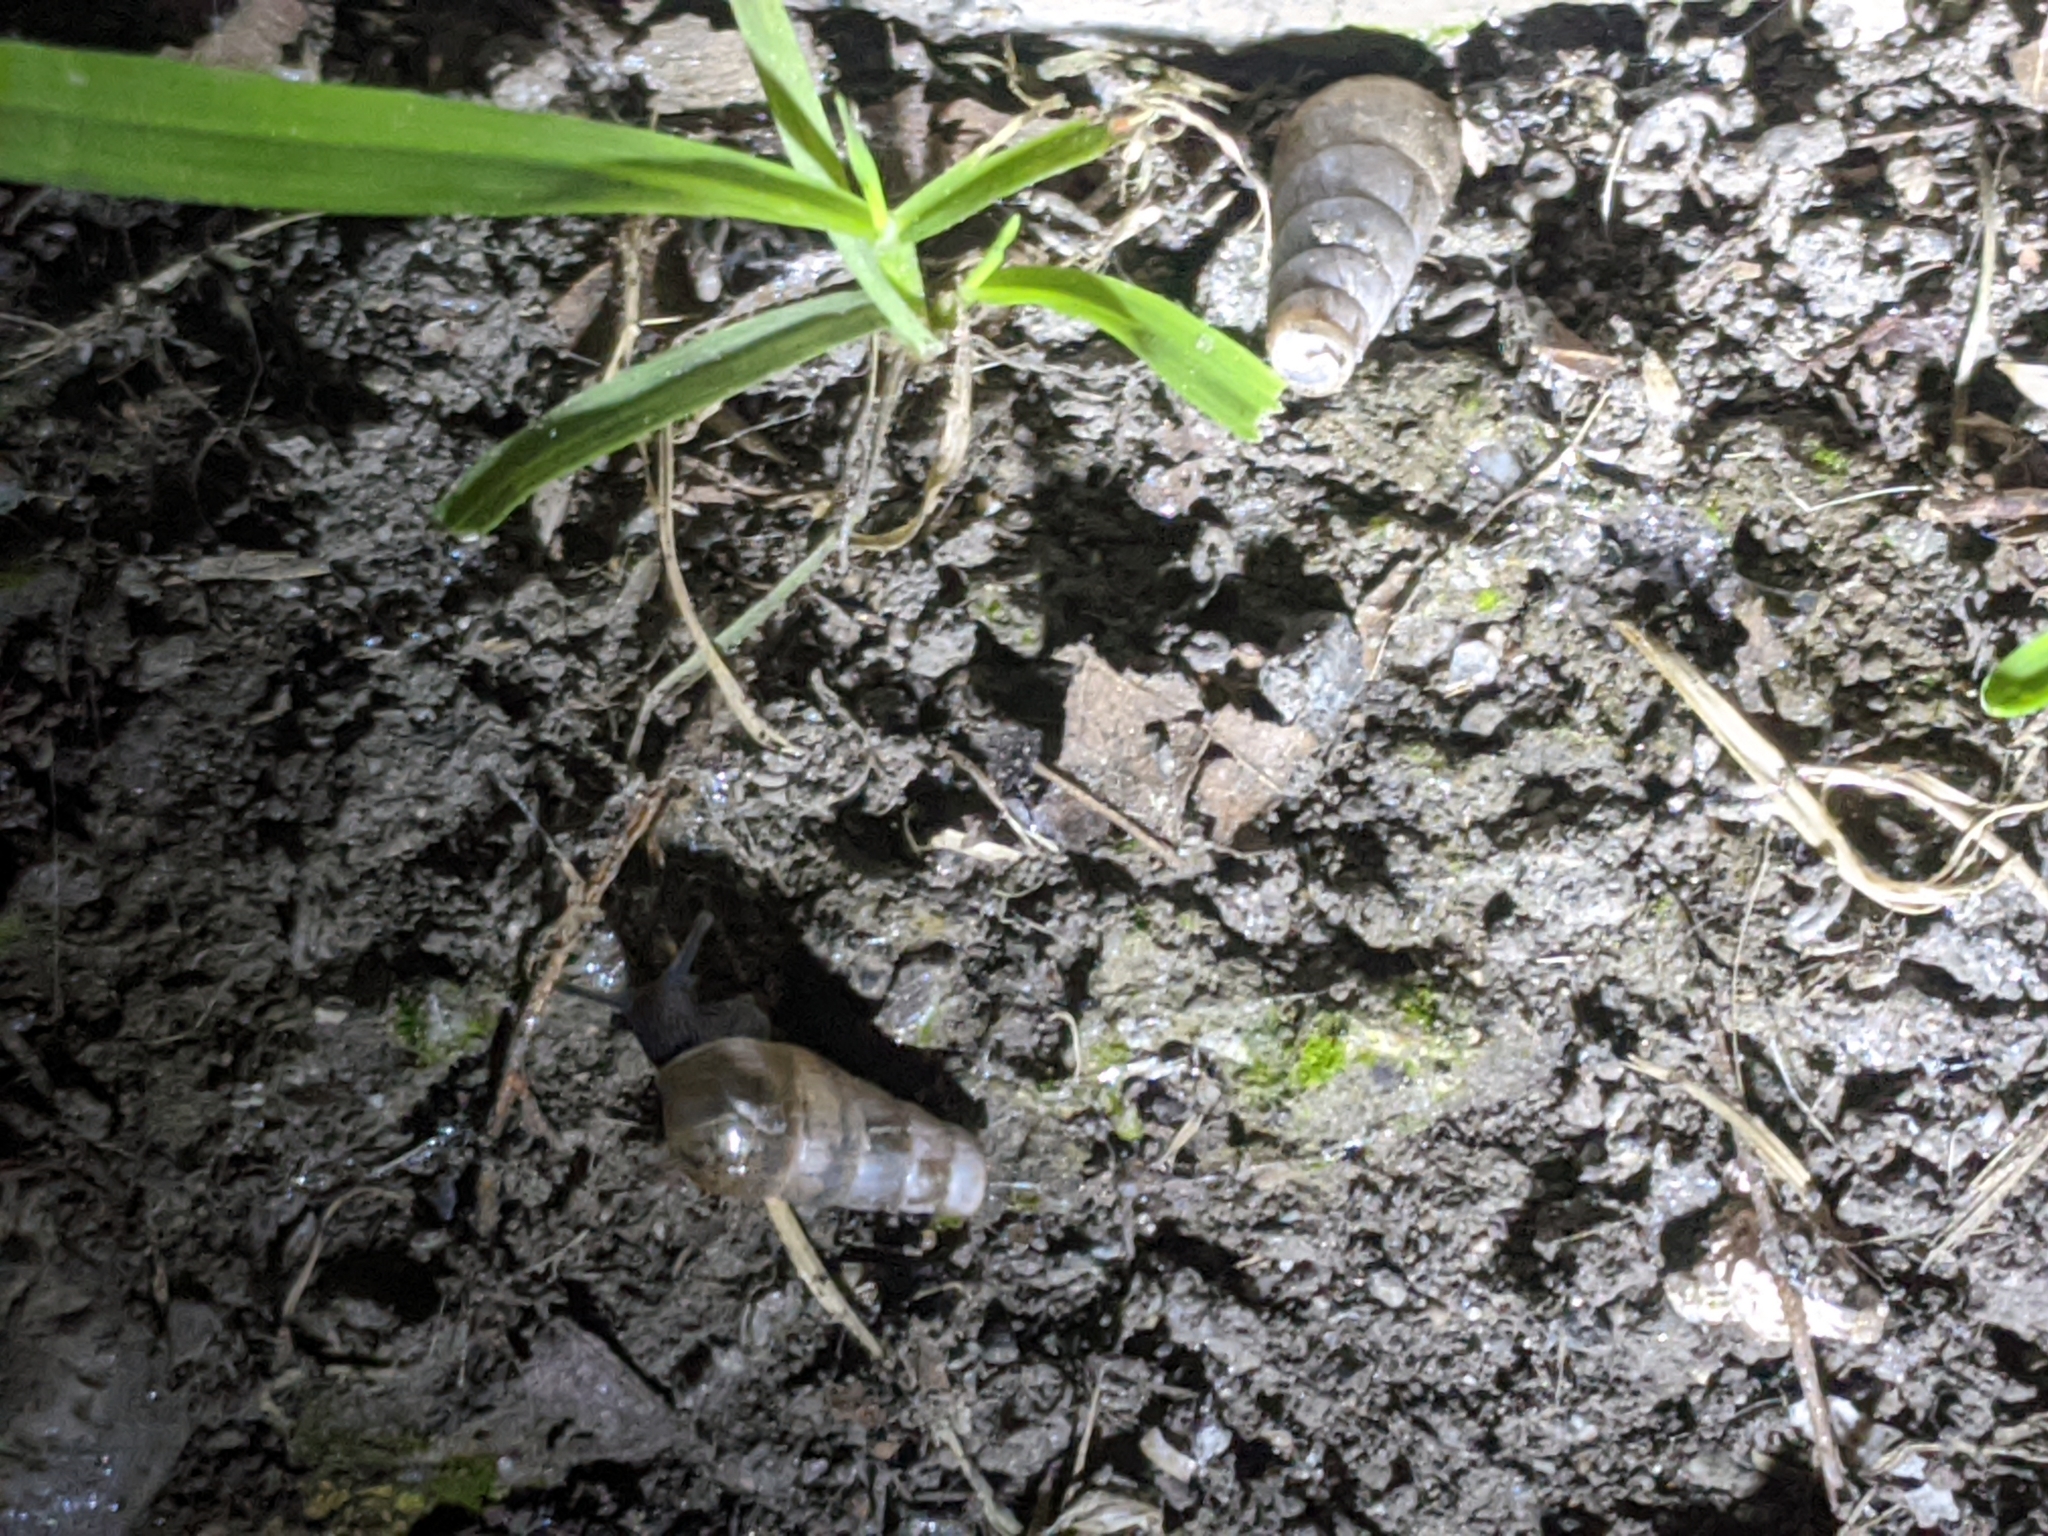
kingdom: Animalia
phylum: Mollusca
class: Gastropoda
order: Stylommatophora
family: Achatinidae
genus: Rumina
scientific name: Rumina decollata
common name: Decollate snail
